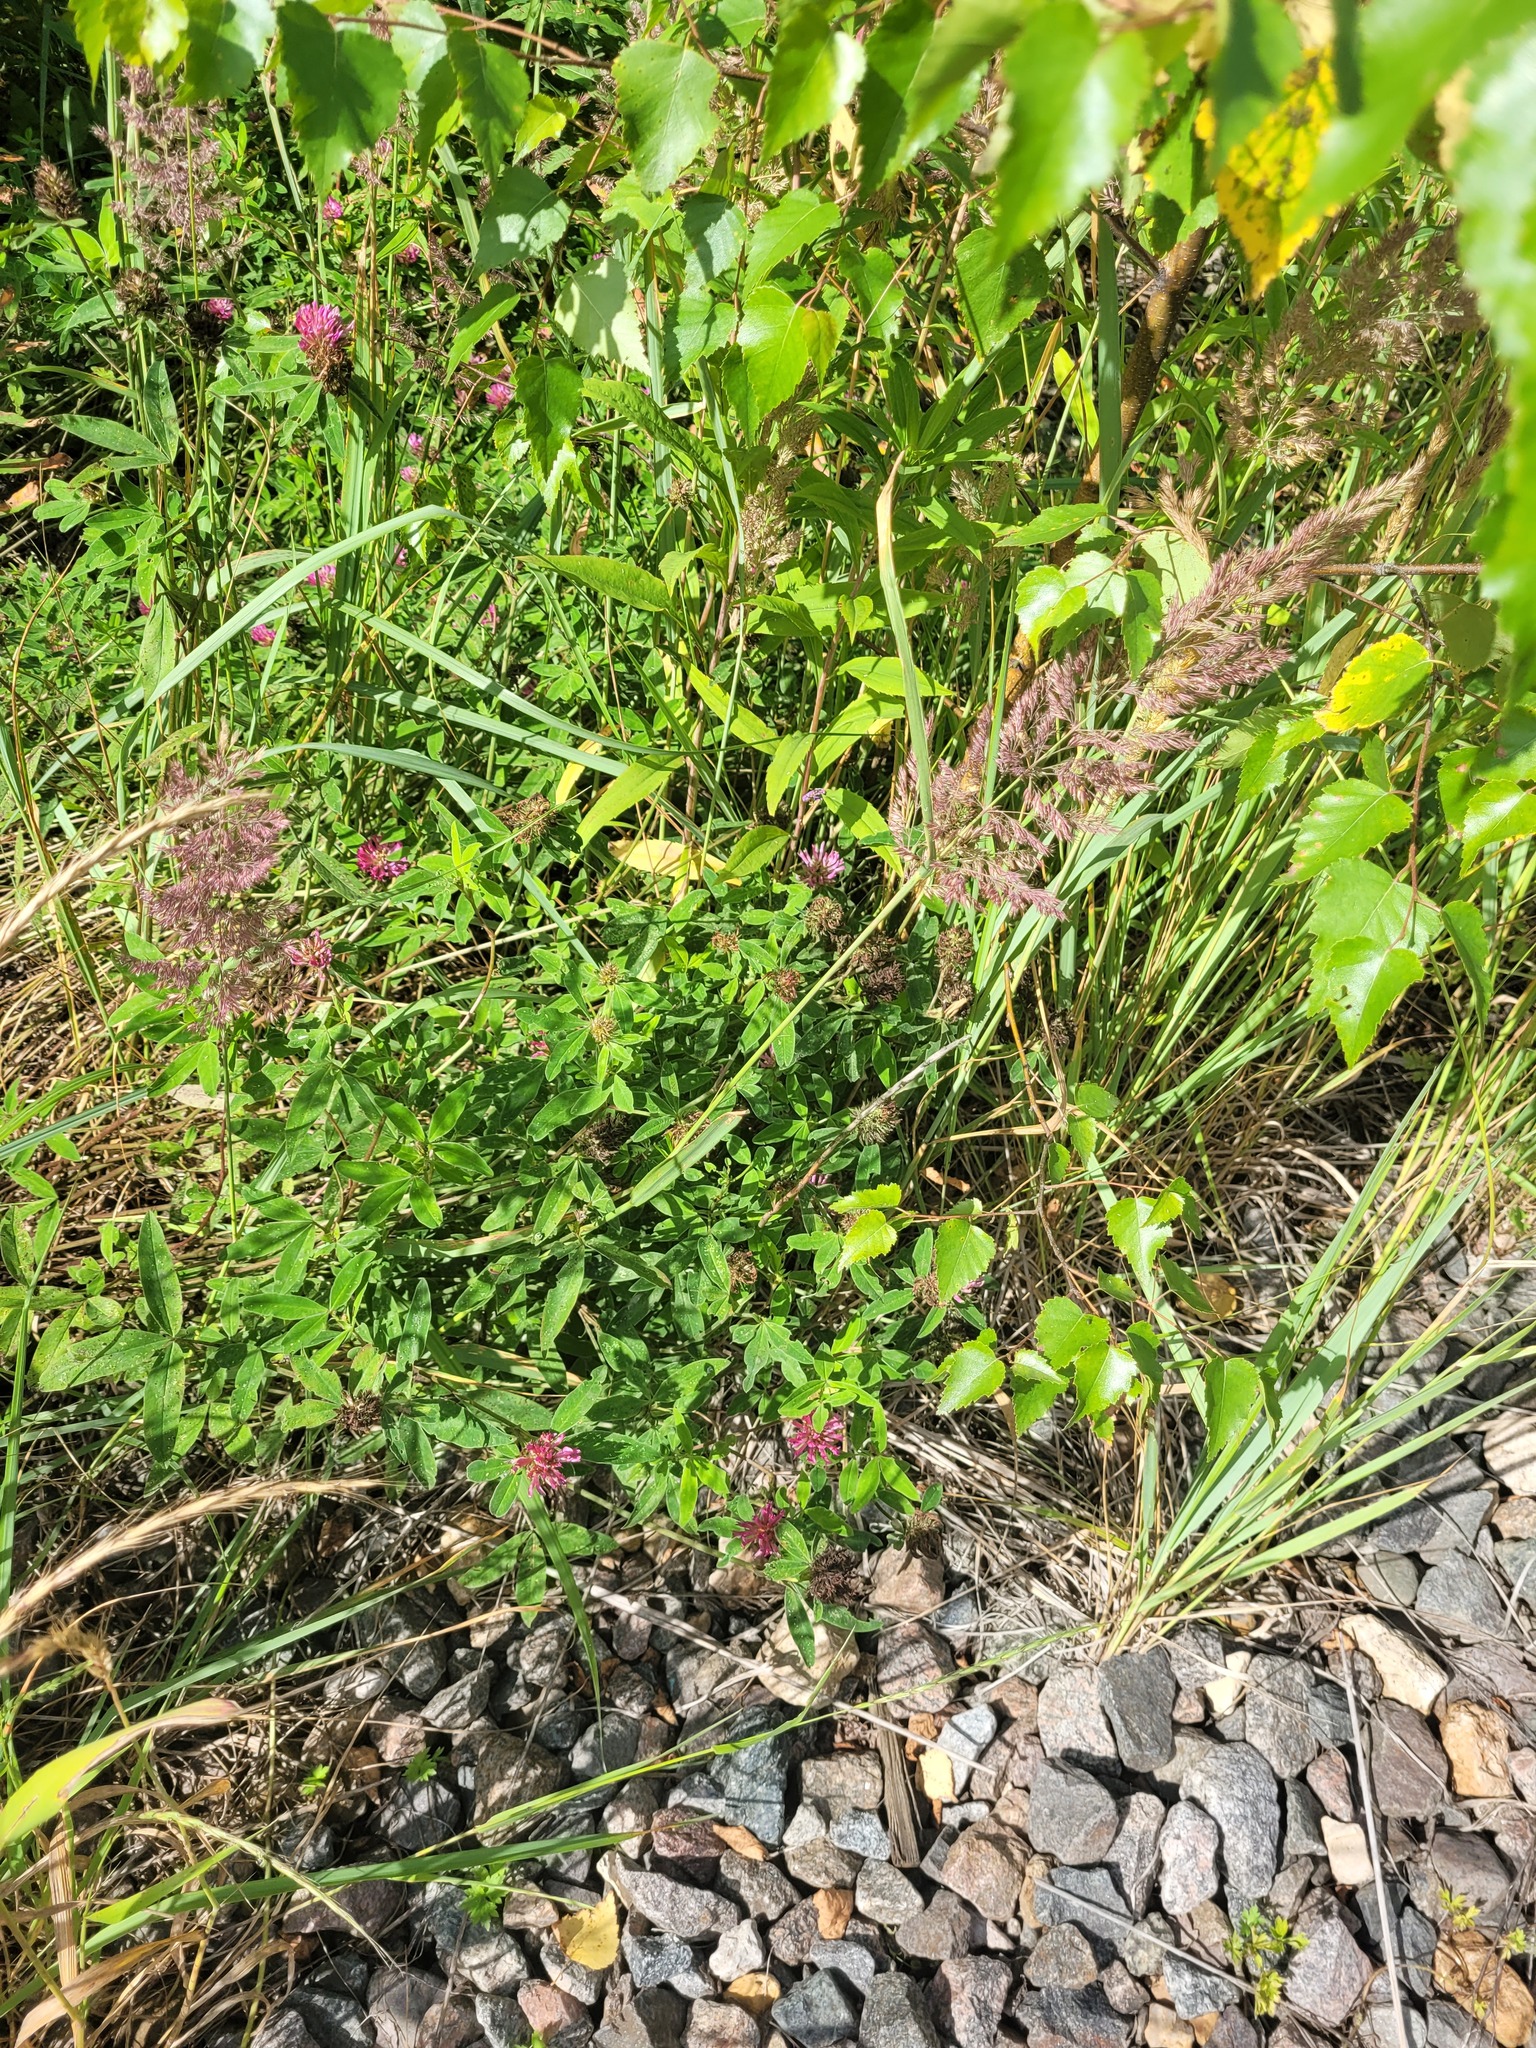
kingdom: Plantae
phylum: Tracheophyta
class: Magnoliopsida
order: Fabales
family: Fabaceae
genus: Trifolium
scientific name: Trifolium medium
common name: Zigzag clover
